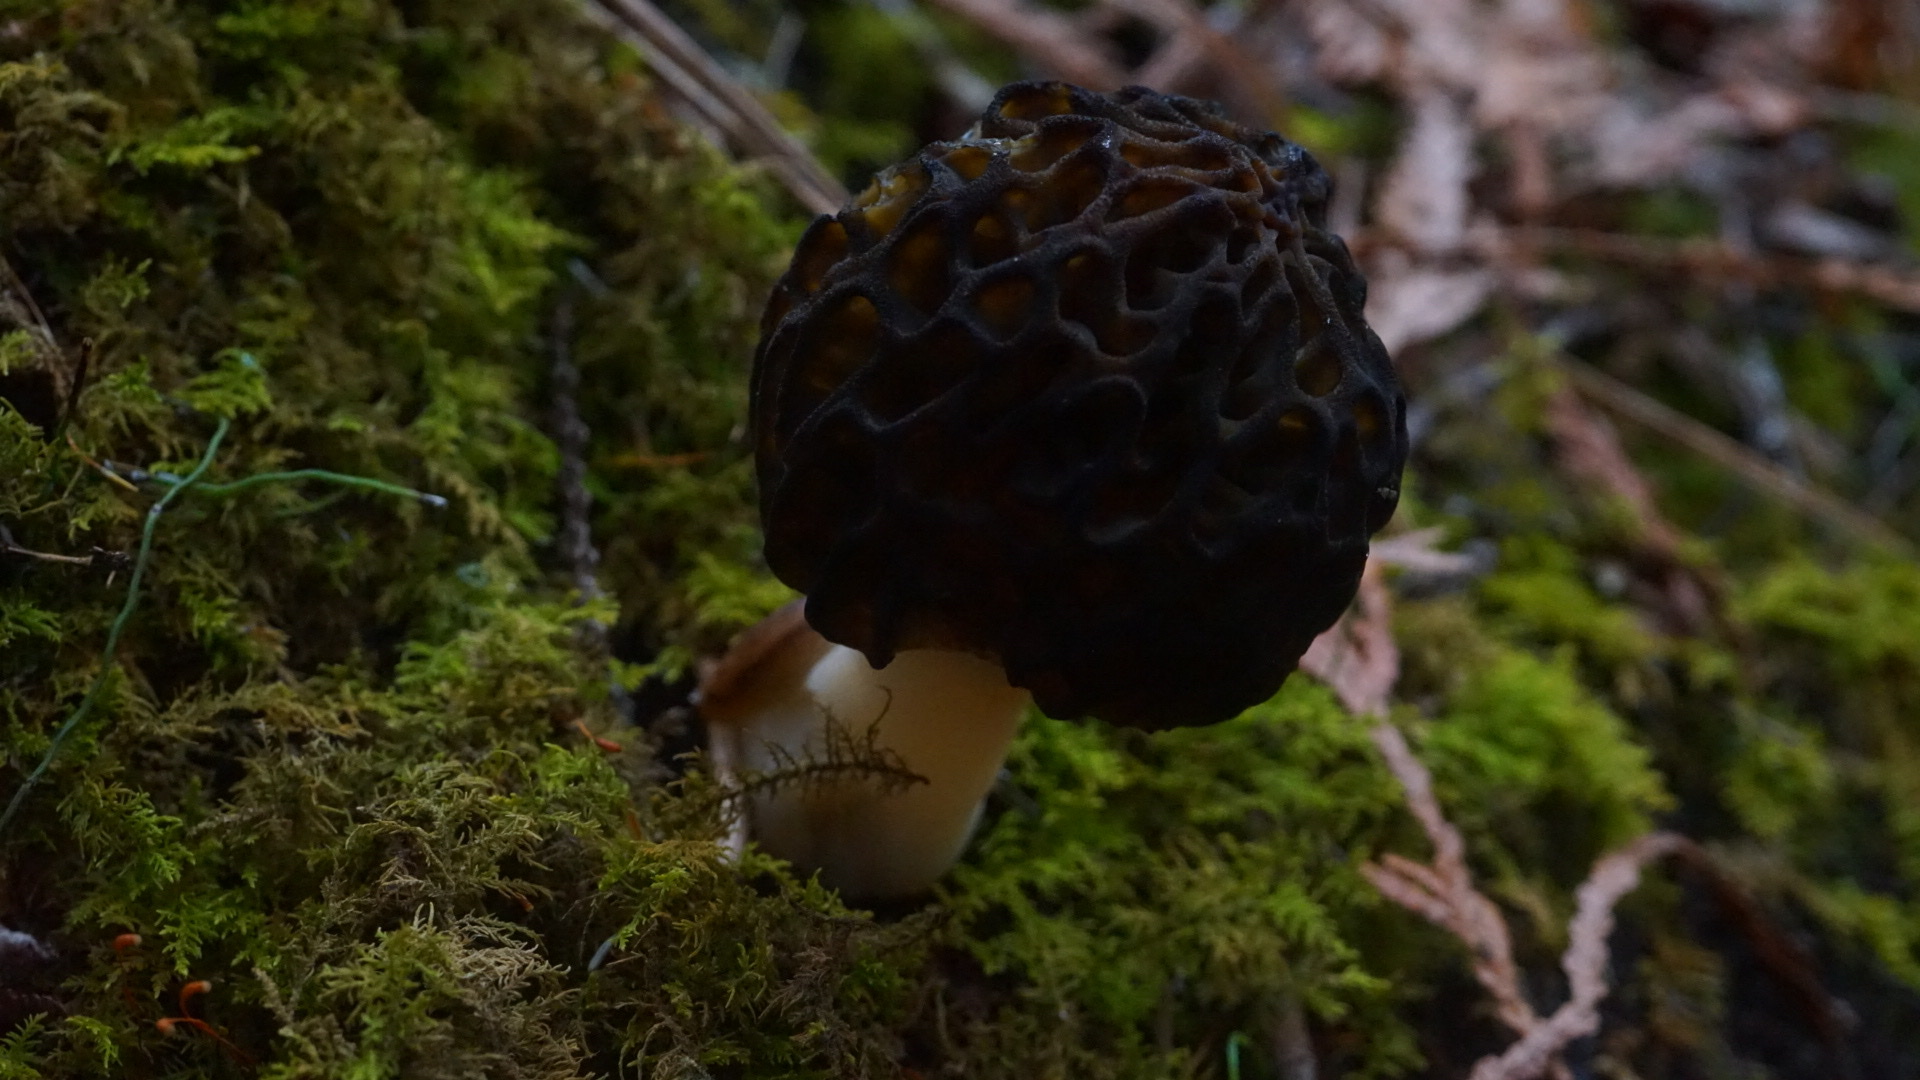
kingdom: Fungi
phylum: Ascomycota
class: Pezizomycetes
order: Pezizales
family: Morchellaceae
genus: Morchella
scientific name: Morchella angusticeps
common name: Black morel
